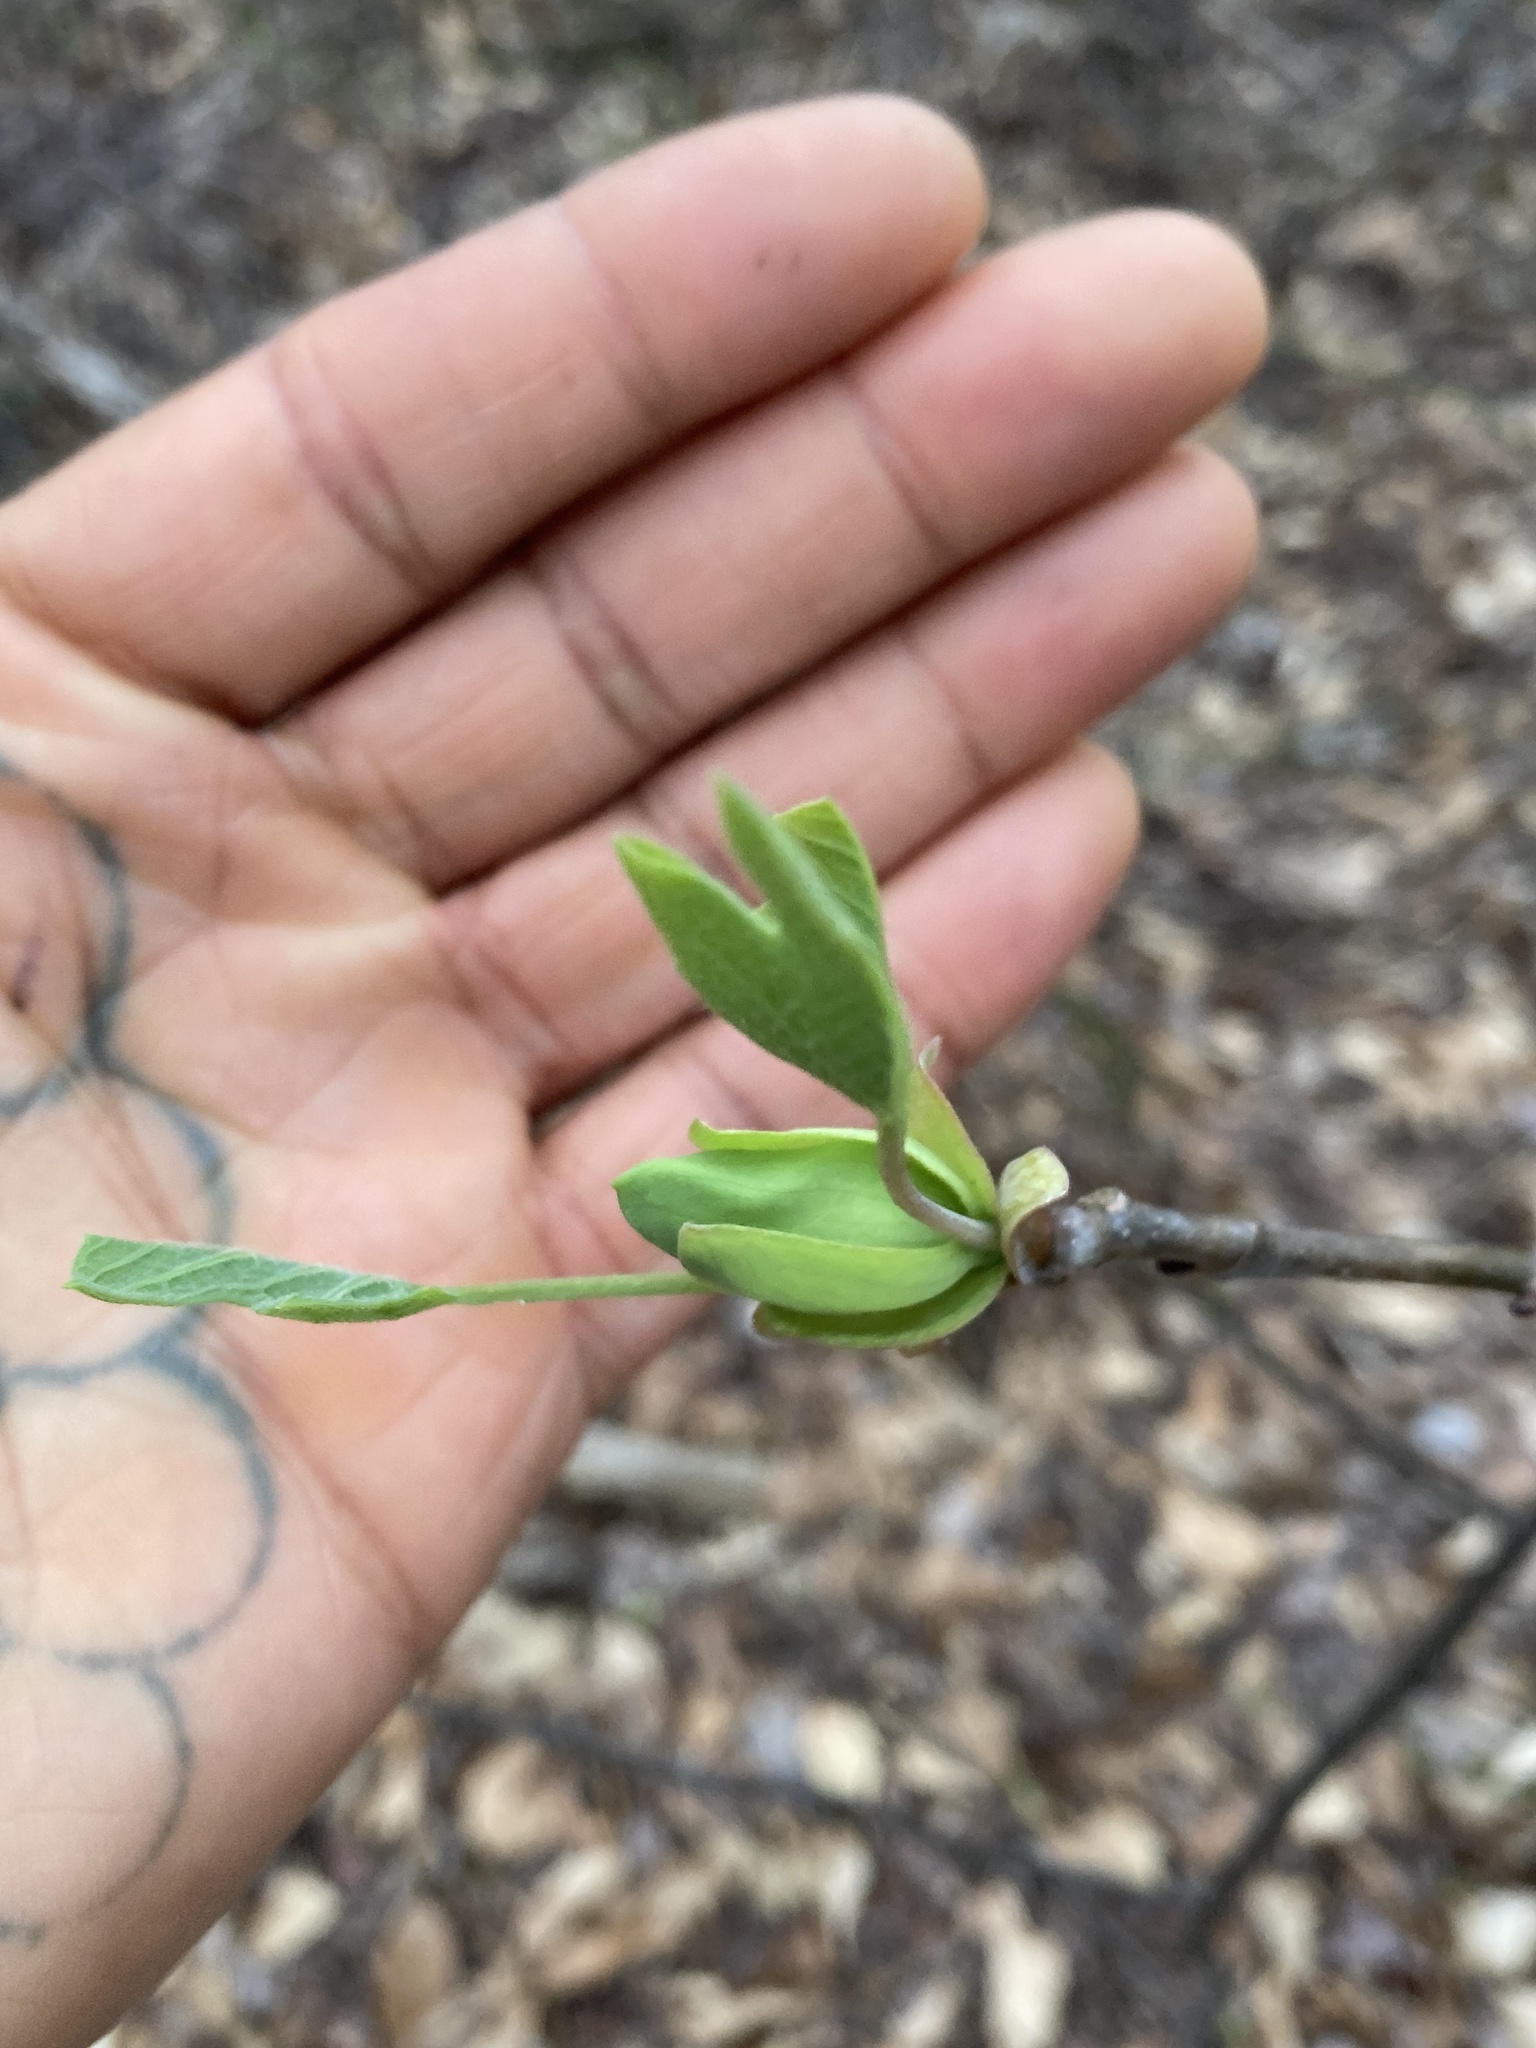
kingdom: Plantae
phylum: Tracheophyta
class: Magnoliopsida
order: Magnoliales
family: Magnoliaceae
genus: Liriodendron
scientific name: Liriodendron tulipifera
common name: Tulip tree
